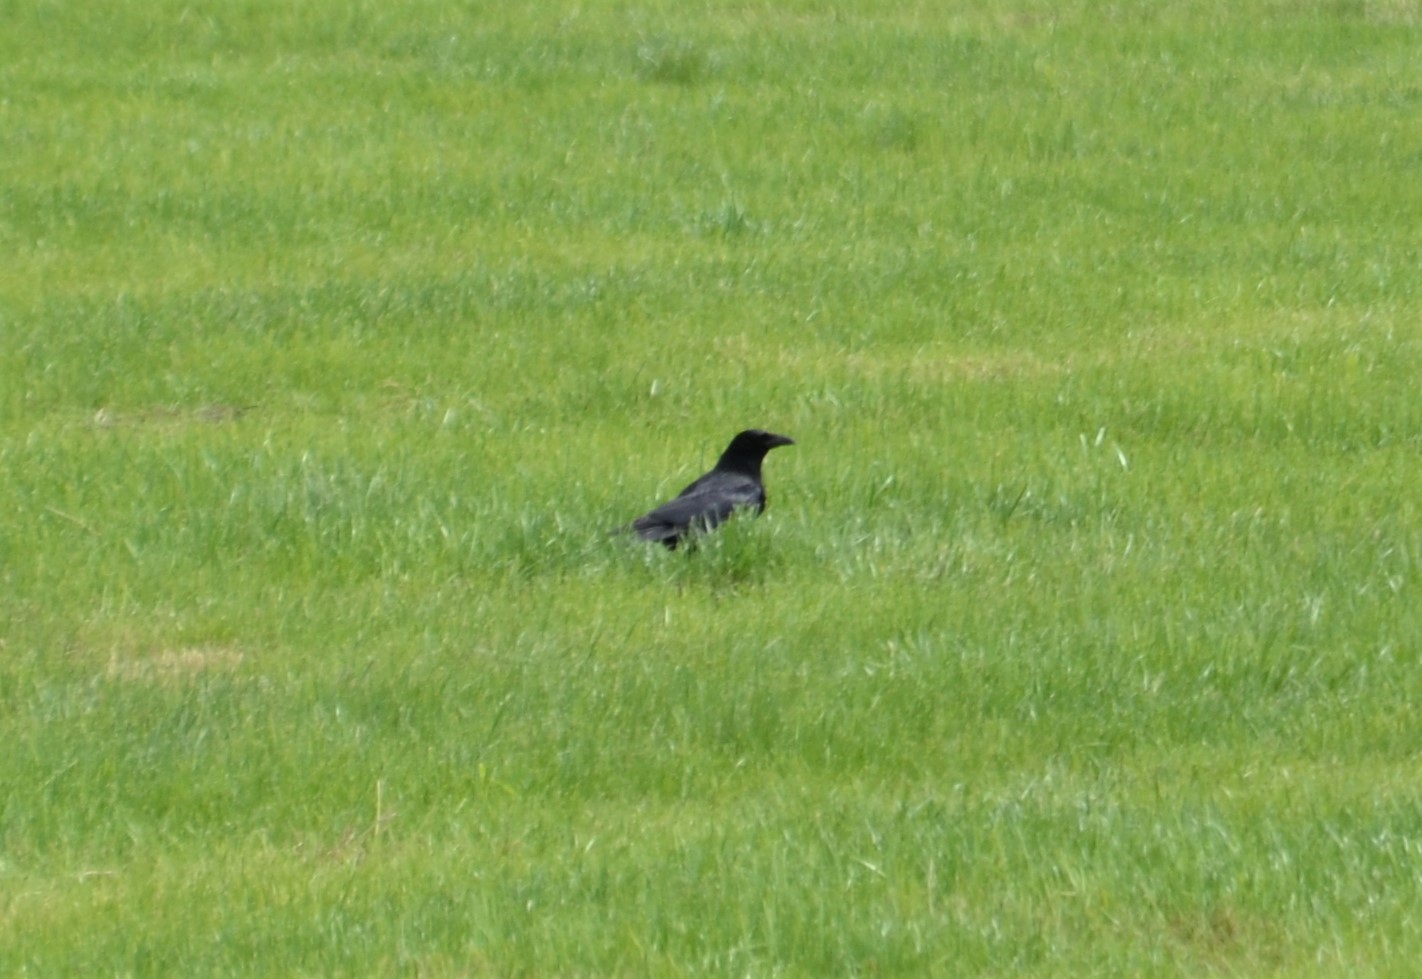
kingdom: Animalia
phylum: Chordata
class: Aves
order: Passeriformes
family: Corvidae
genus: Corvus
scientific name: Corvus corone
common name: Carrion crow
